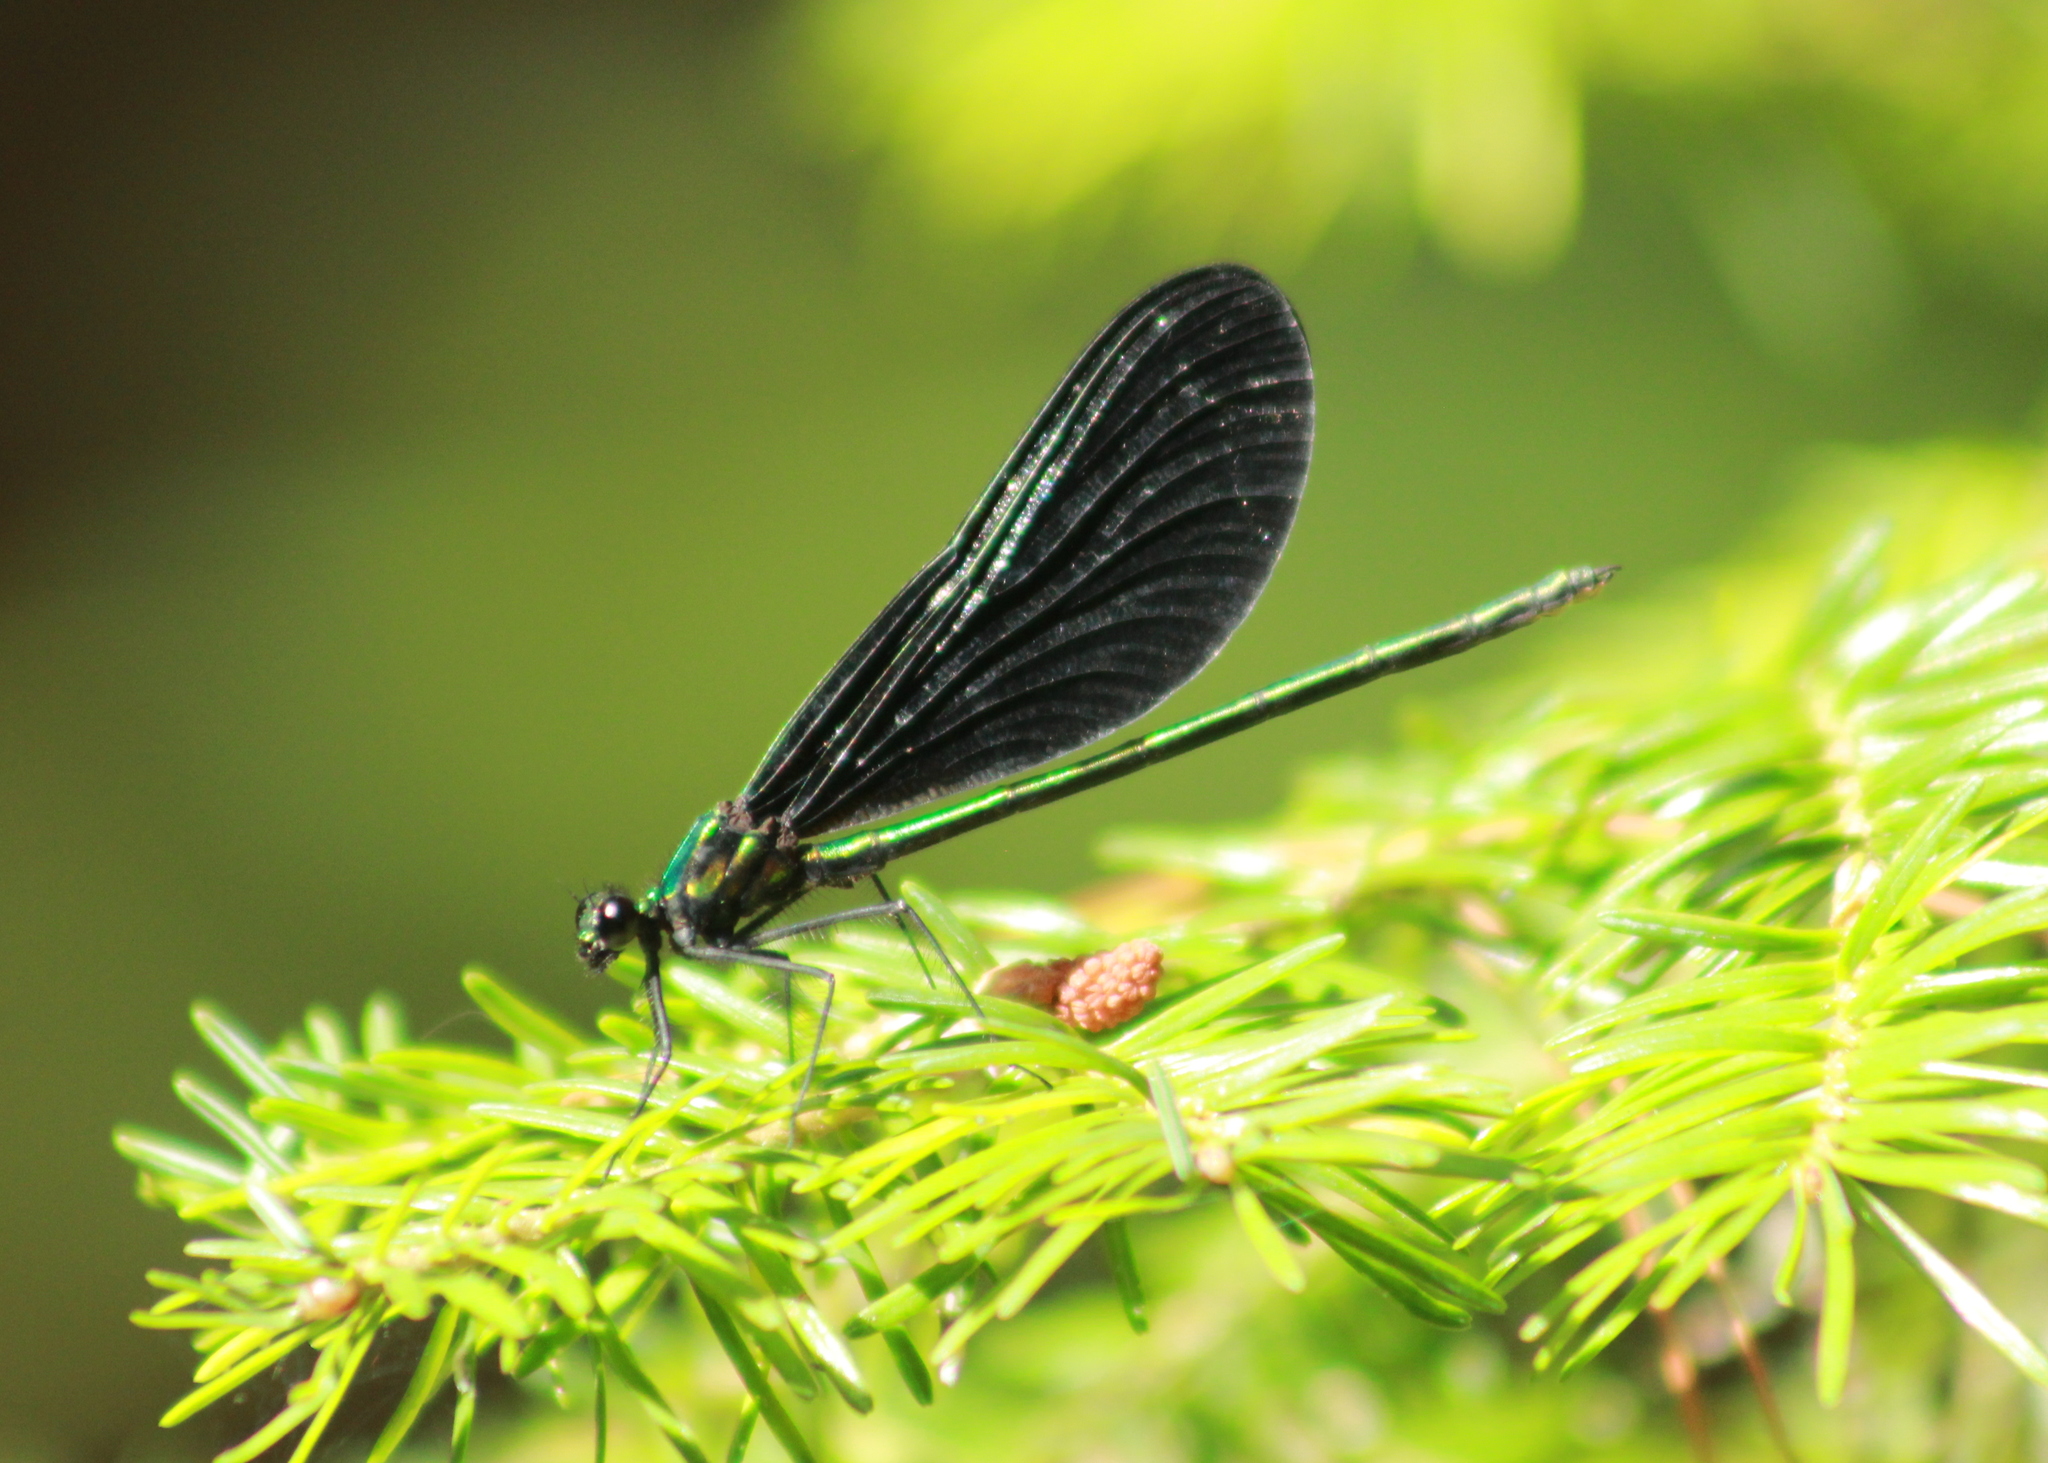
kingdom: Animalia
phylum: Arthropoda
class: Insecta
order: Odonata
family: Calopterygidae
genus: Calopteryx
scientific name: Calopteryx maculata
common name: Ebony jewelwing
